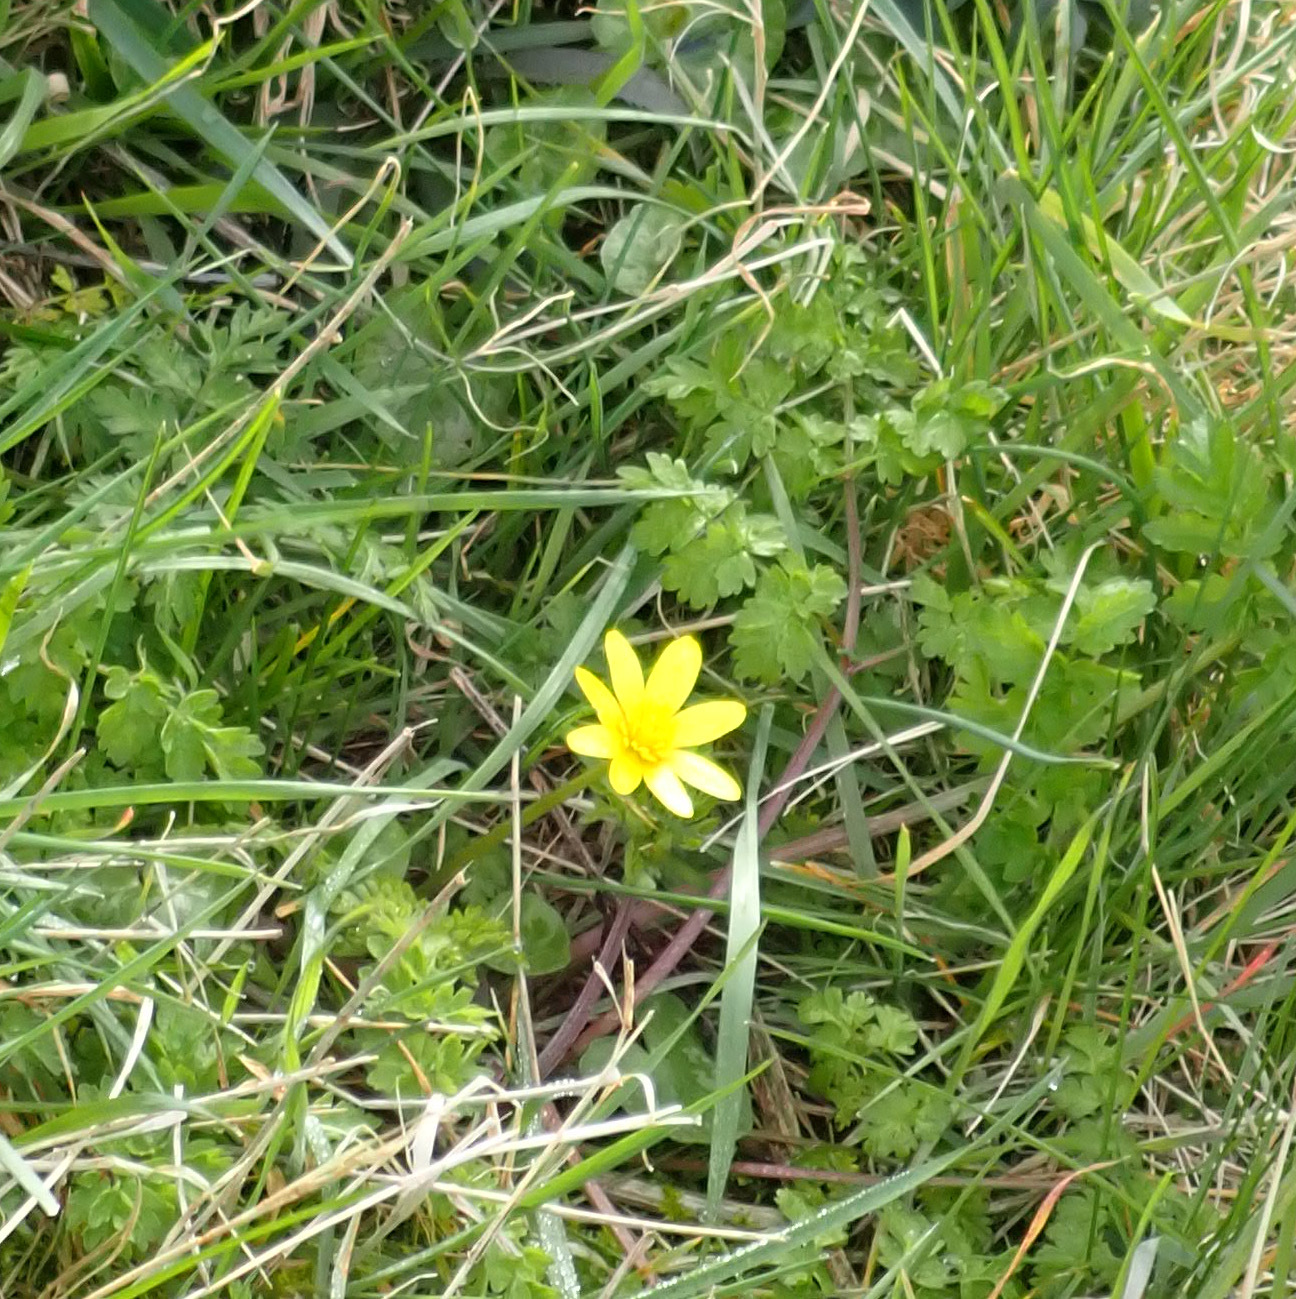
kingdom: Plantae
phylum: Tracheophyta
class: Magnoliopsida
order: Ranunculales
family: Ranunculaceae
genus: Ficaria
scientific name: Ficaria verna
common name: Lesser celandine
